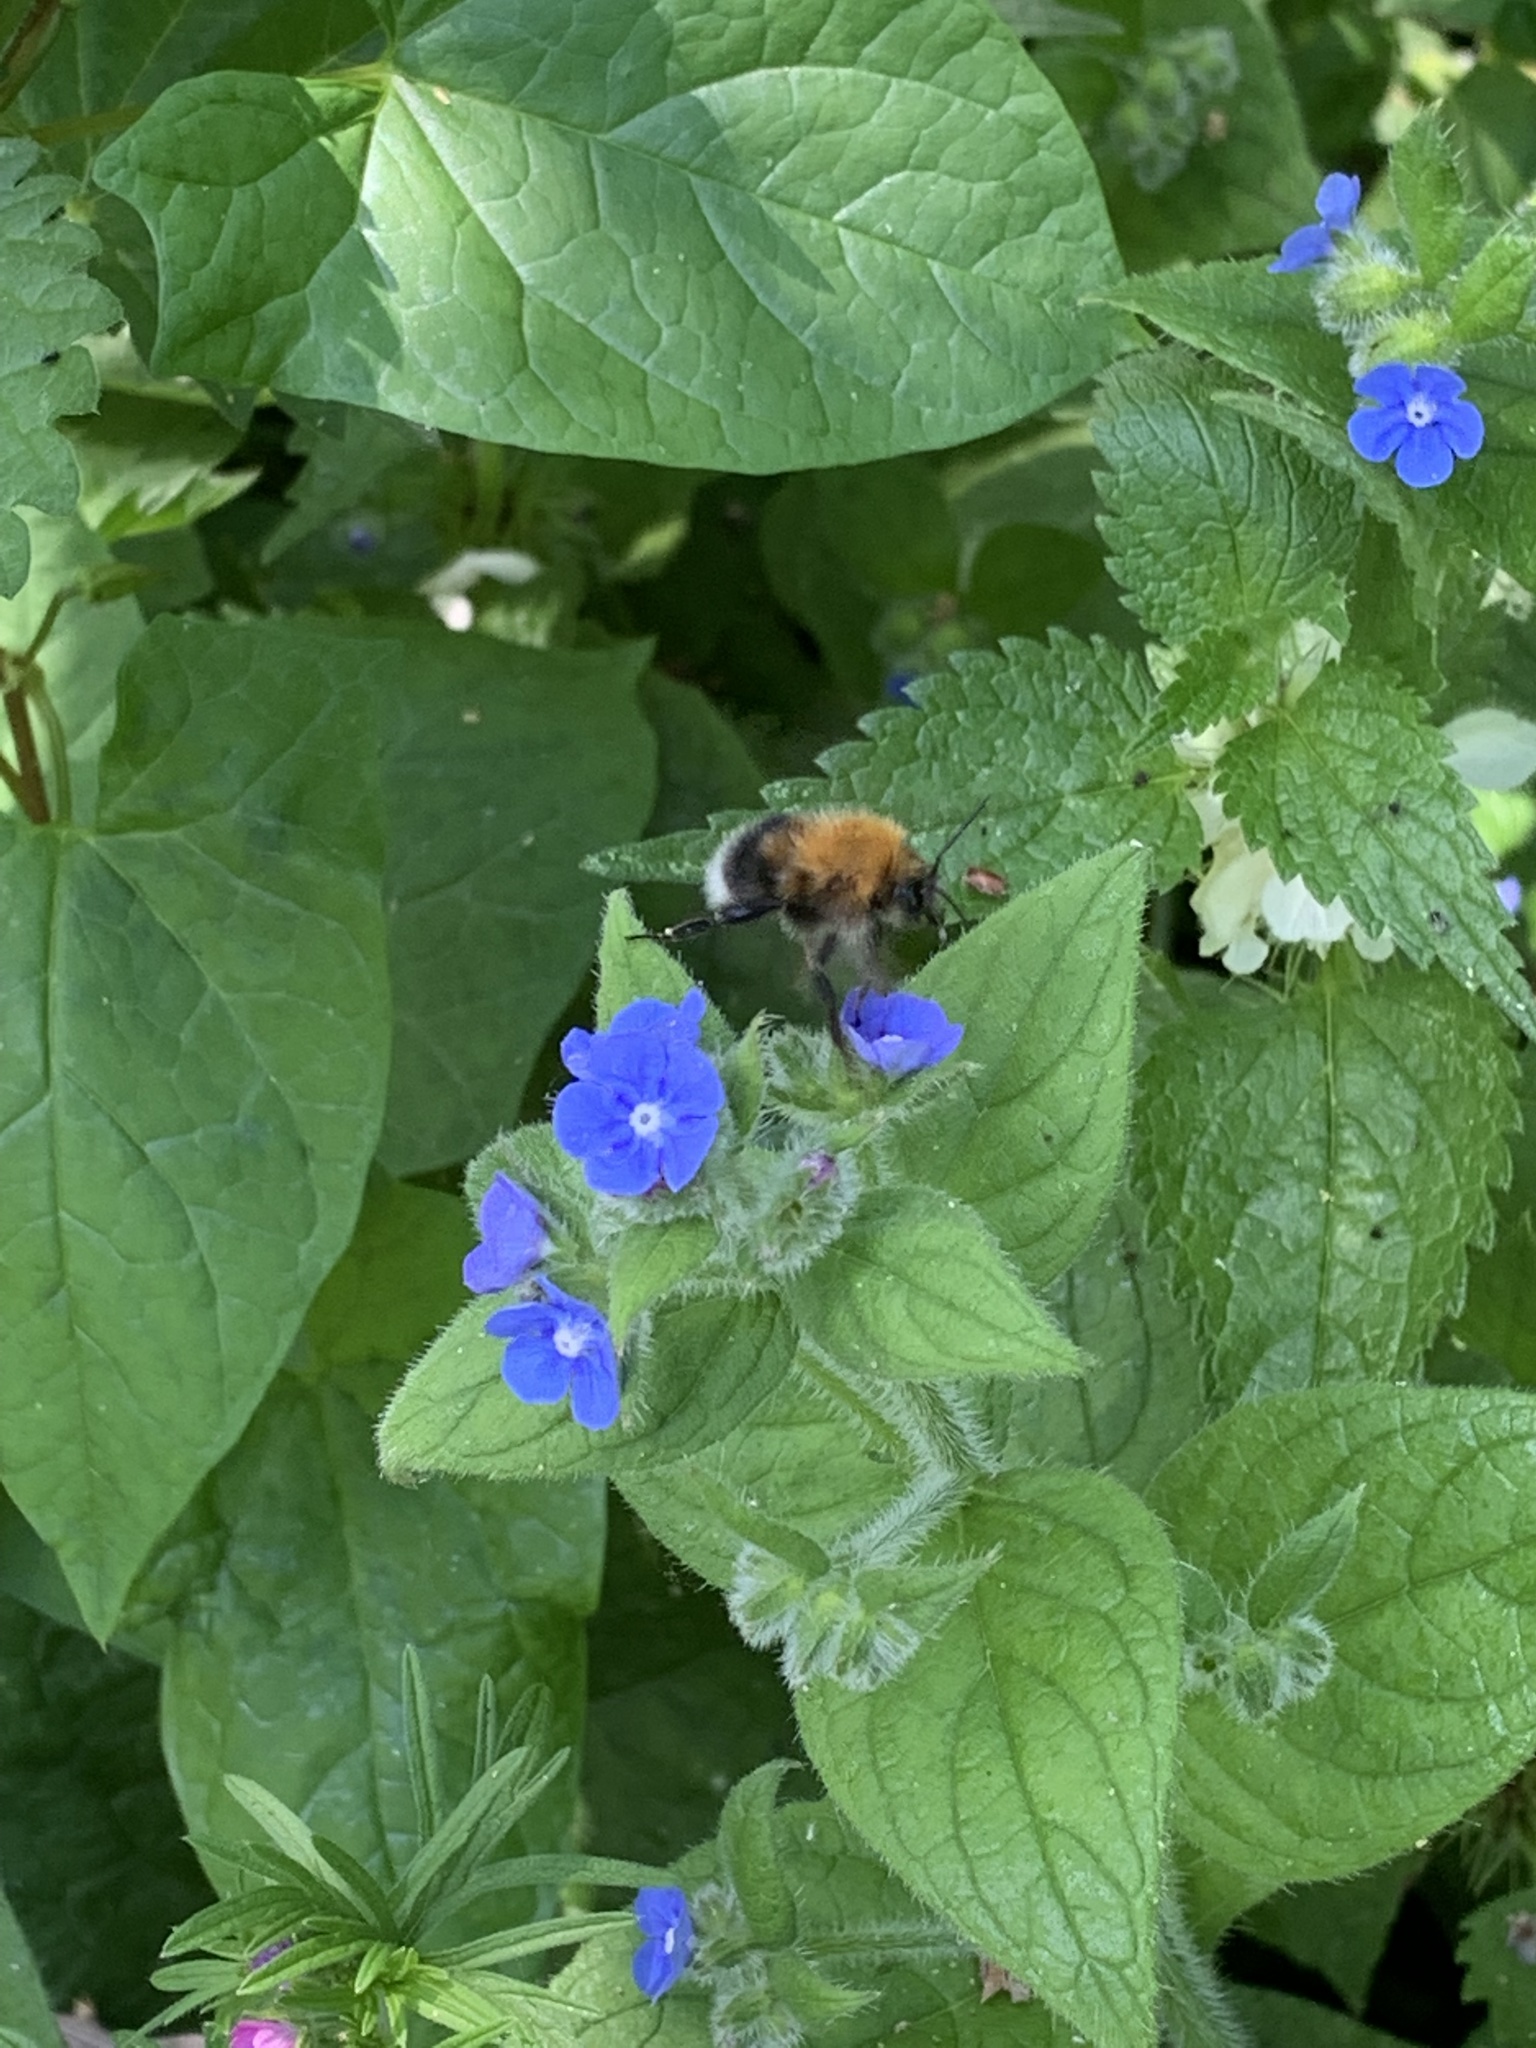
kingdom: Animalia
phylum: Arthropoda
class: Insecta
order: Hymenoptera
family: Apidae
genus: Bombus
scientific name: Bombus hypnorum
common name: New garden bumblebee
